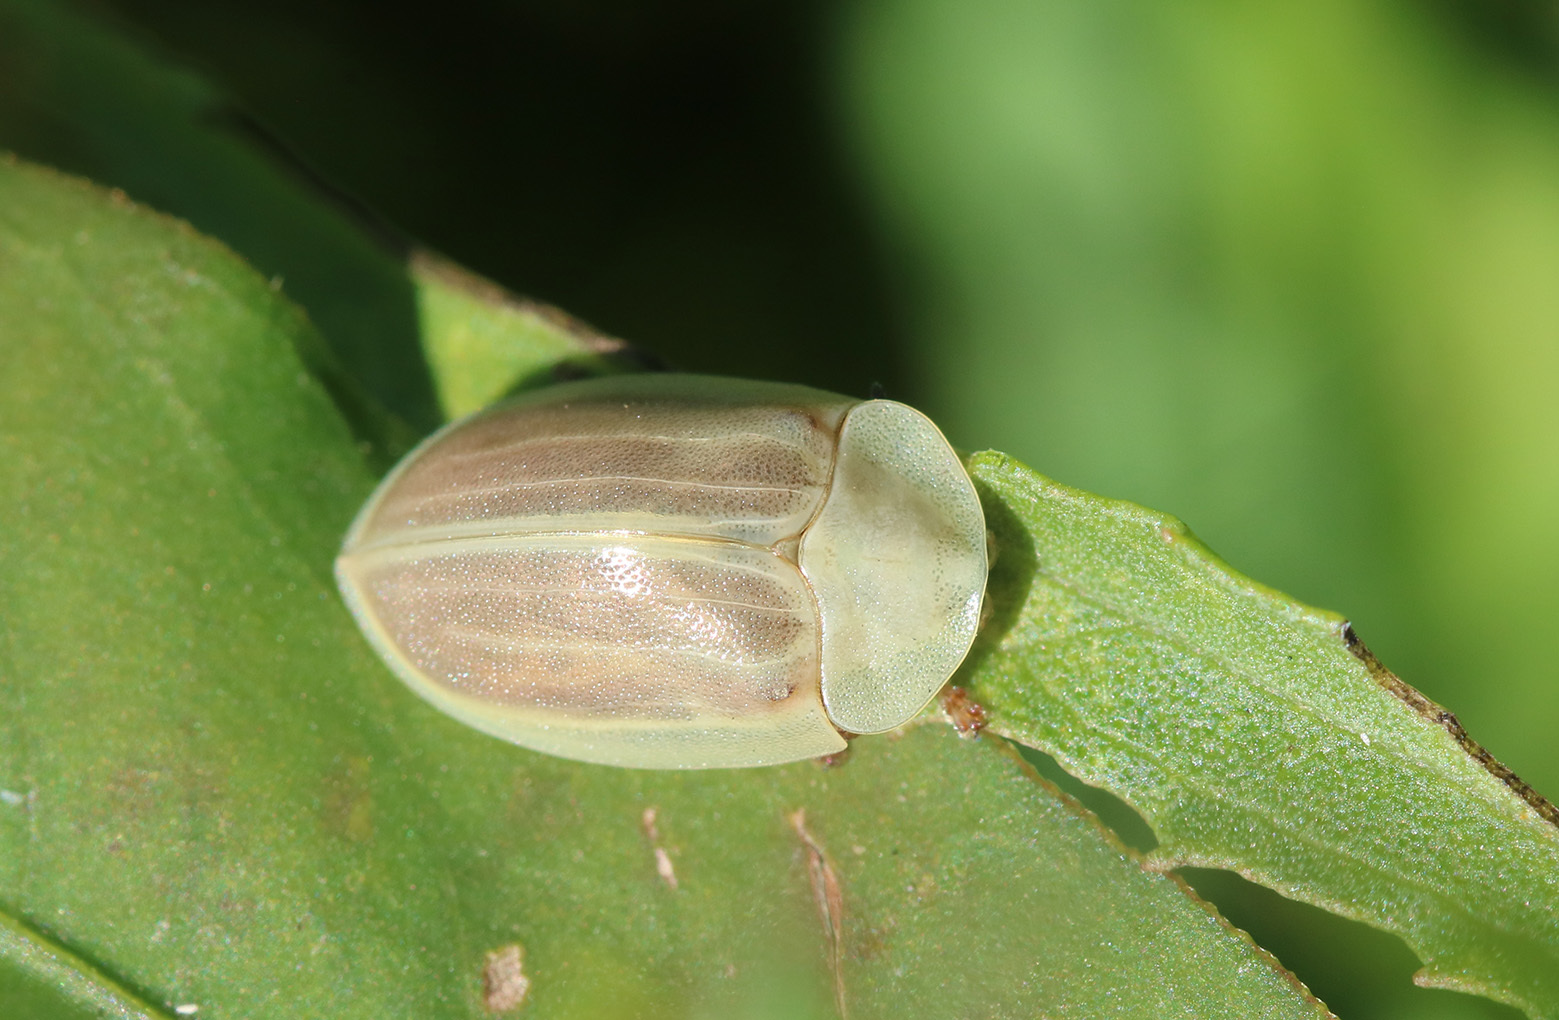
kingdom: Animalia
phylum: Arthropoda
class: Insecta
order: Coleoptera
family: Chrysomelidae
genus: Anacassis
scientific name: Anacassis fuscata
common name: Seepwillow flea beetle
